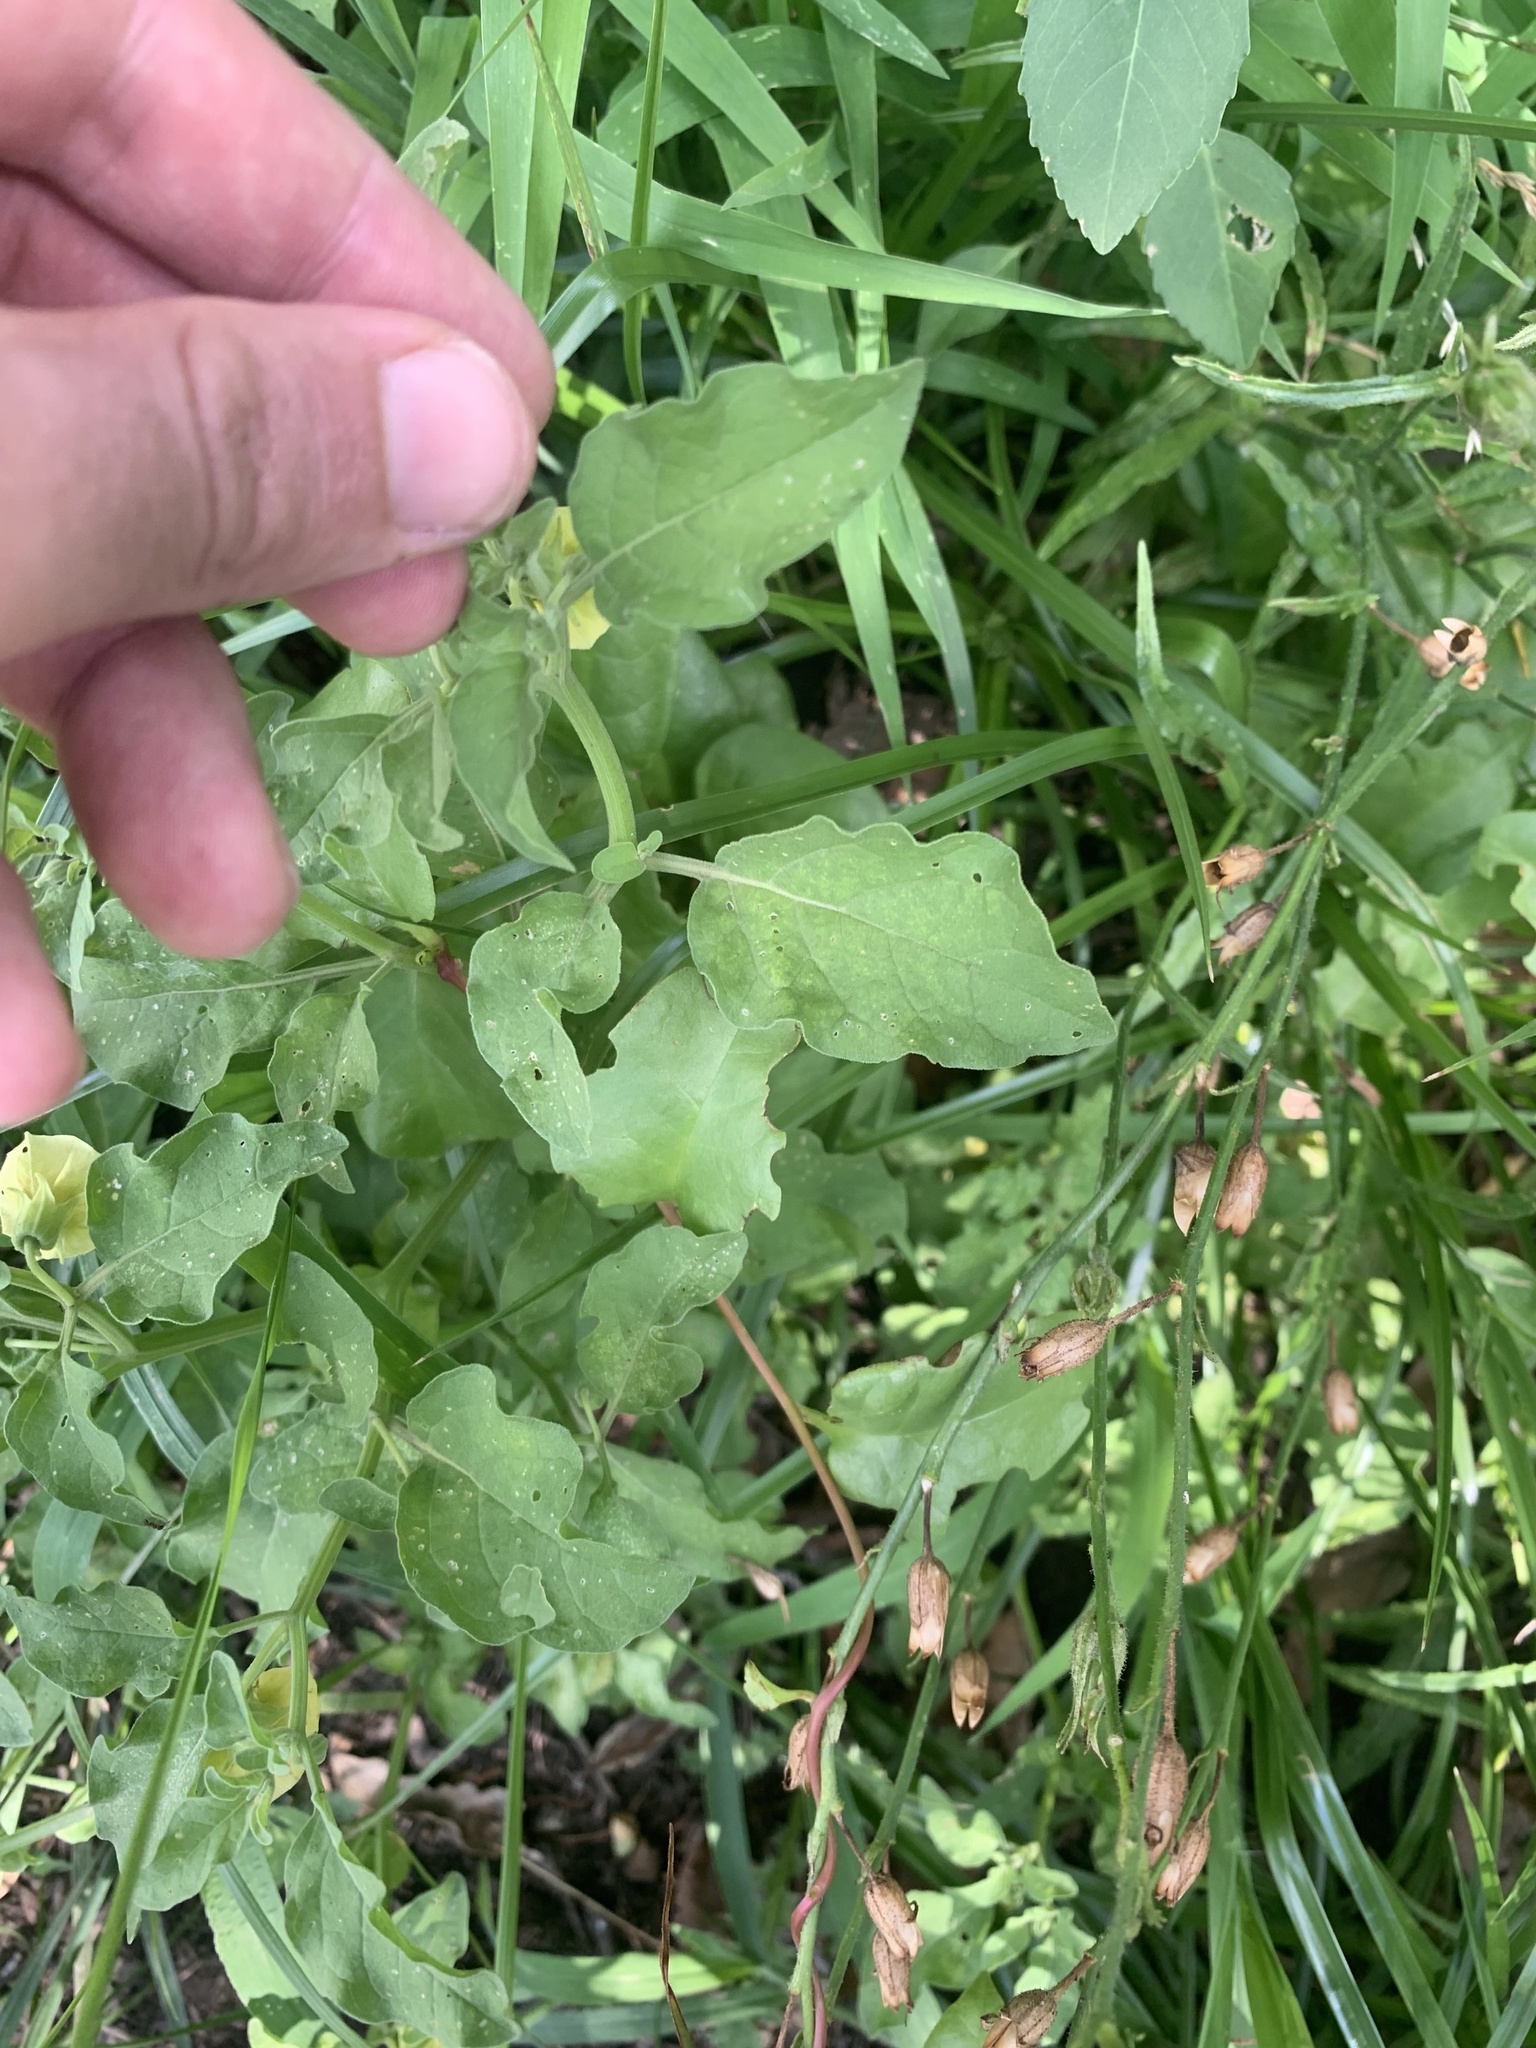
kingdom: Plantae
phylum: Tracheophyta
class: Magnoliopsida
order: Solanales
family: Solanaceae
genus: Physalis
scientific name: Physalis viscosa
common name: Stellate ground-cherry
